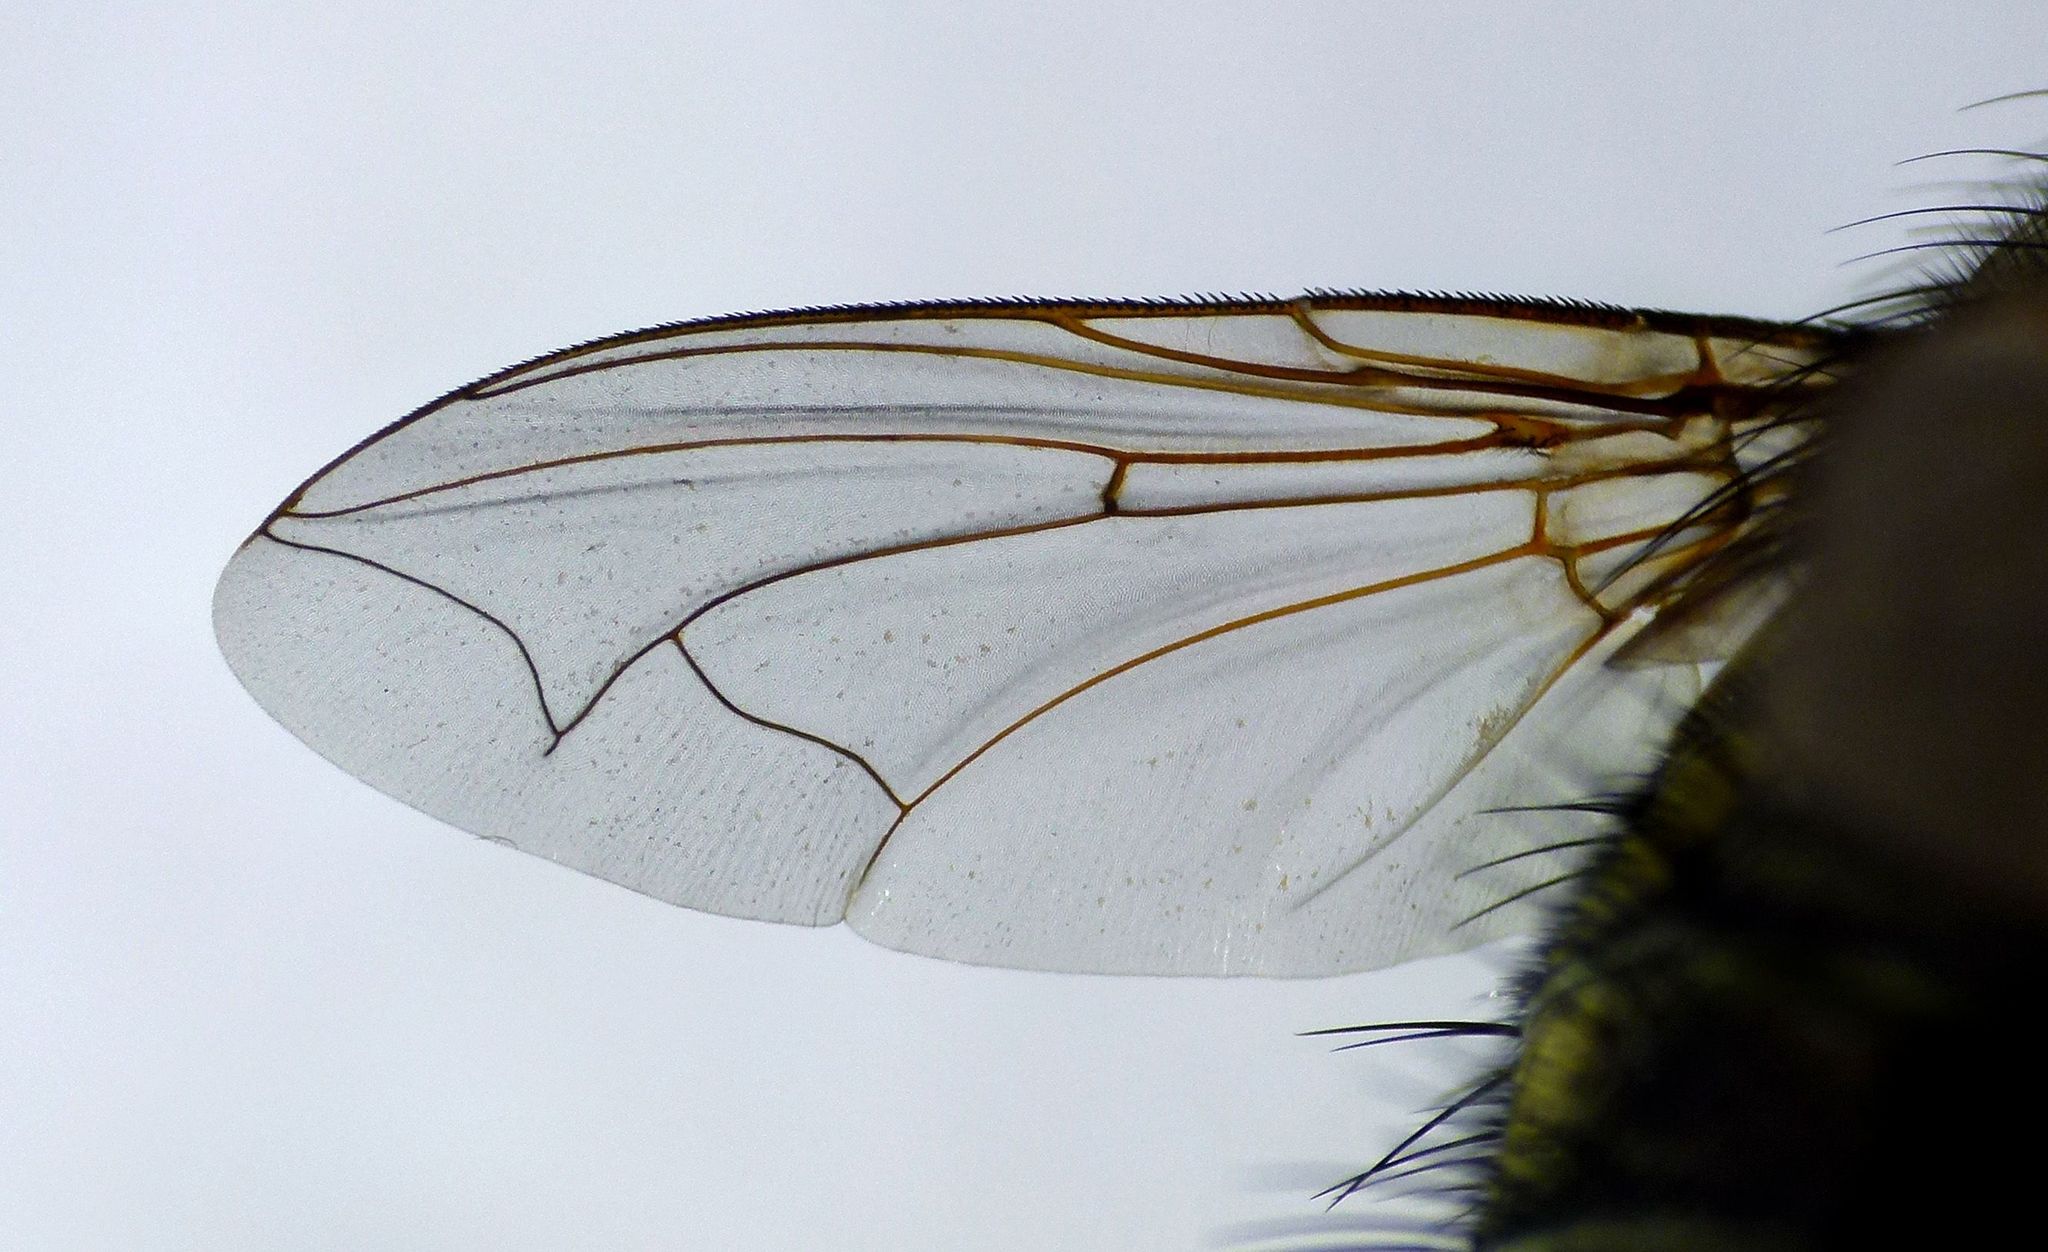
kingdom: Animalia
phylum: Arthropoda
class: Insecta
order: Diptera
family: Tachinidae
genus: Bothrophora
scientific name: Bothrophora lupina
